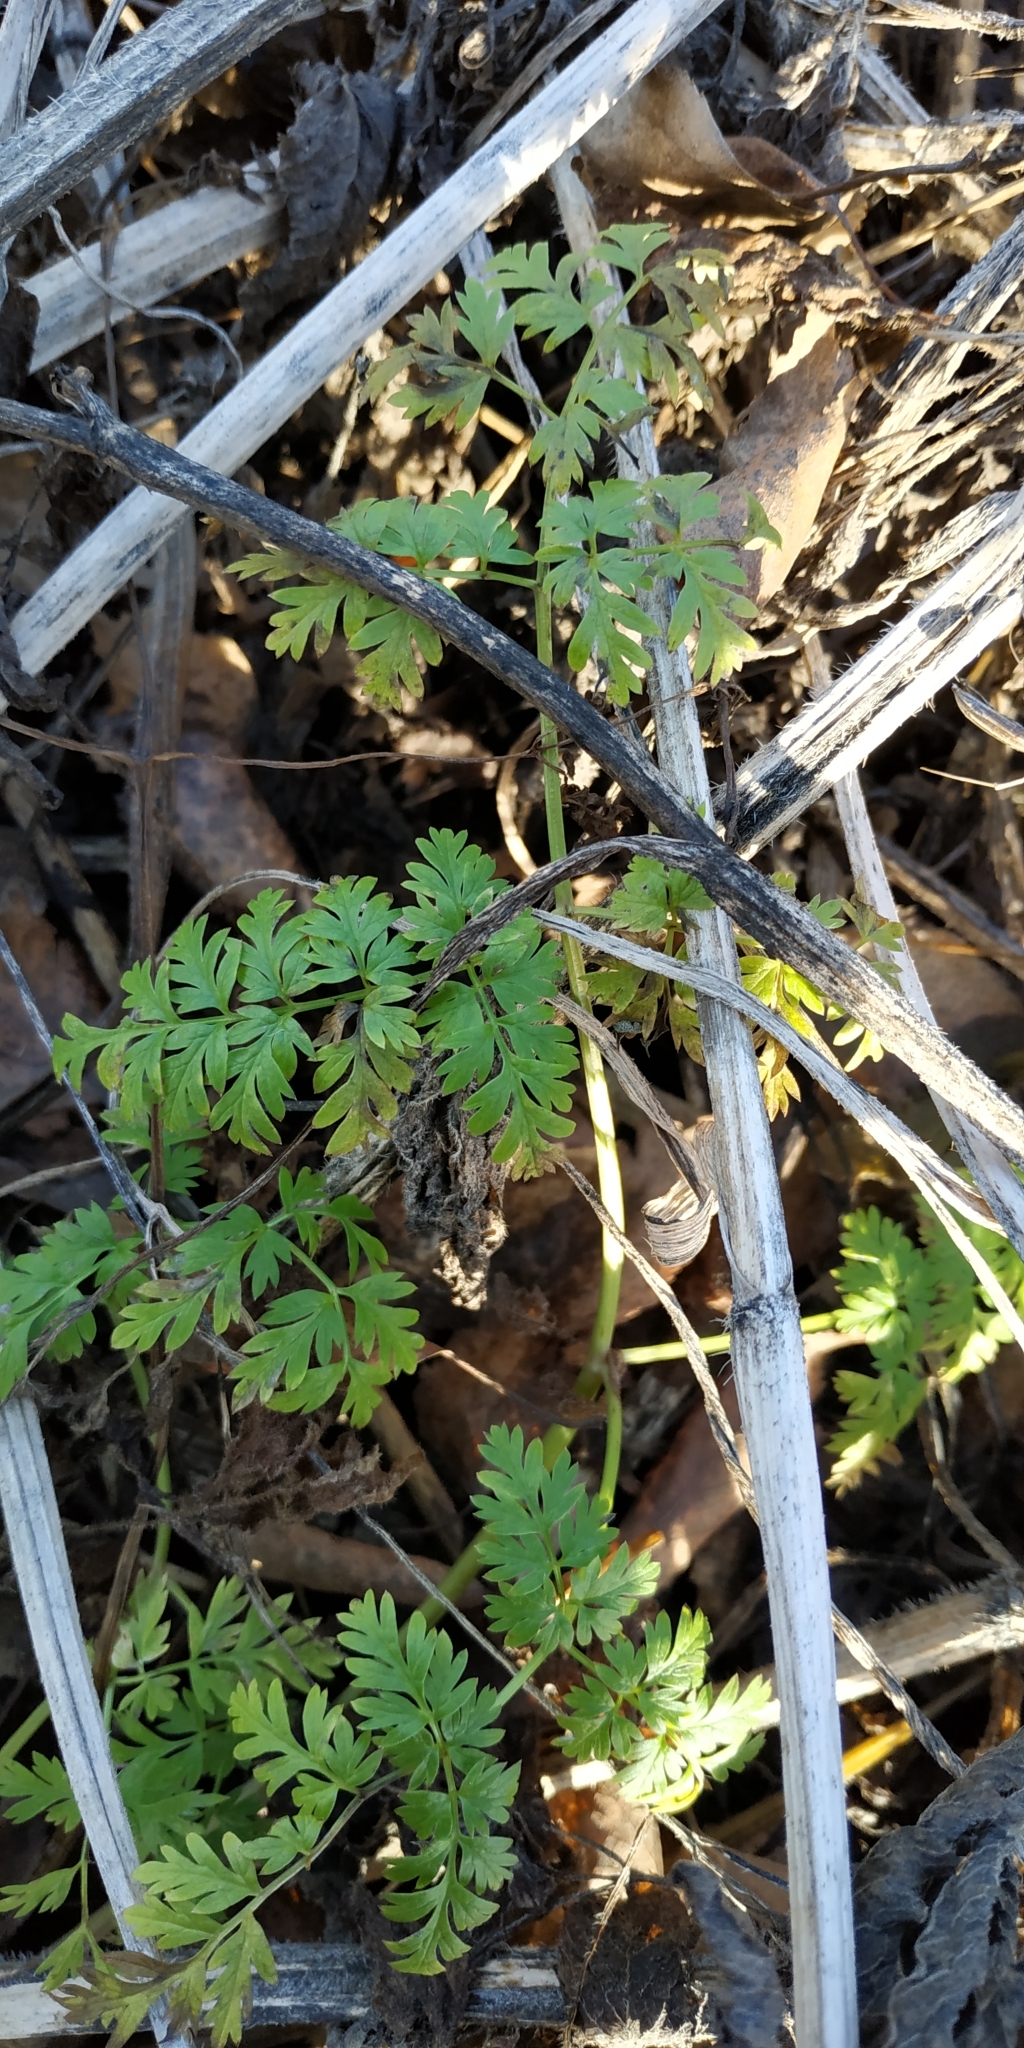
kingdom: Plantae
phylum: Tracheophyta
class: Magnoliopsida
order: Apiales
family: Apiaceae
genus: Anthriscus
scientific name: Anthriscus sylvestris
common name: Cow parsley
